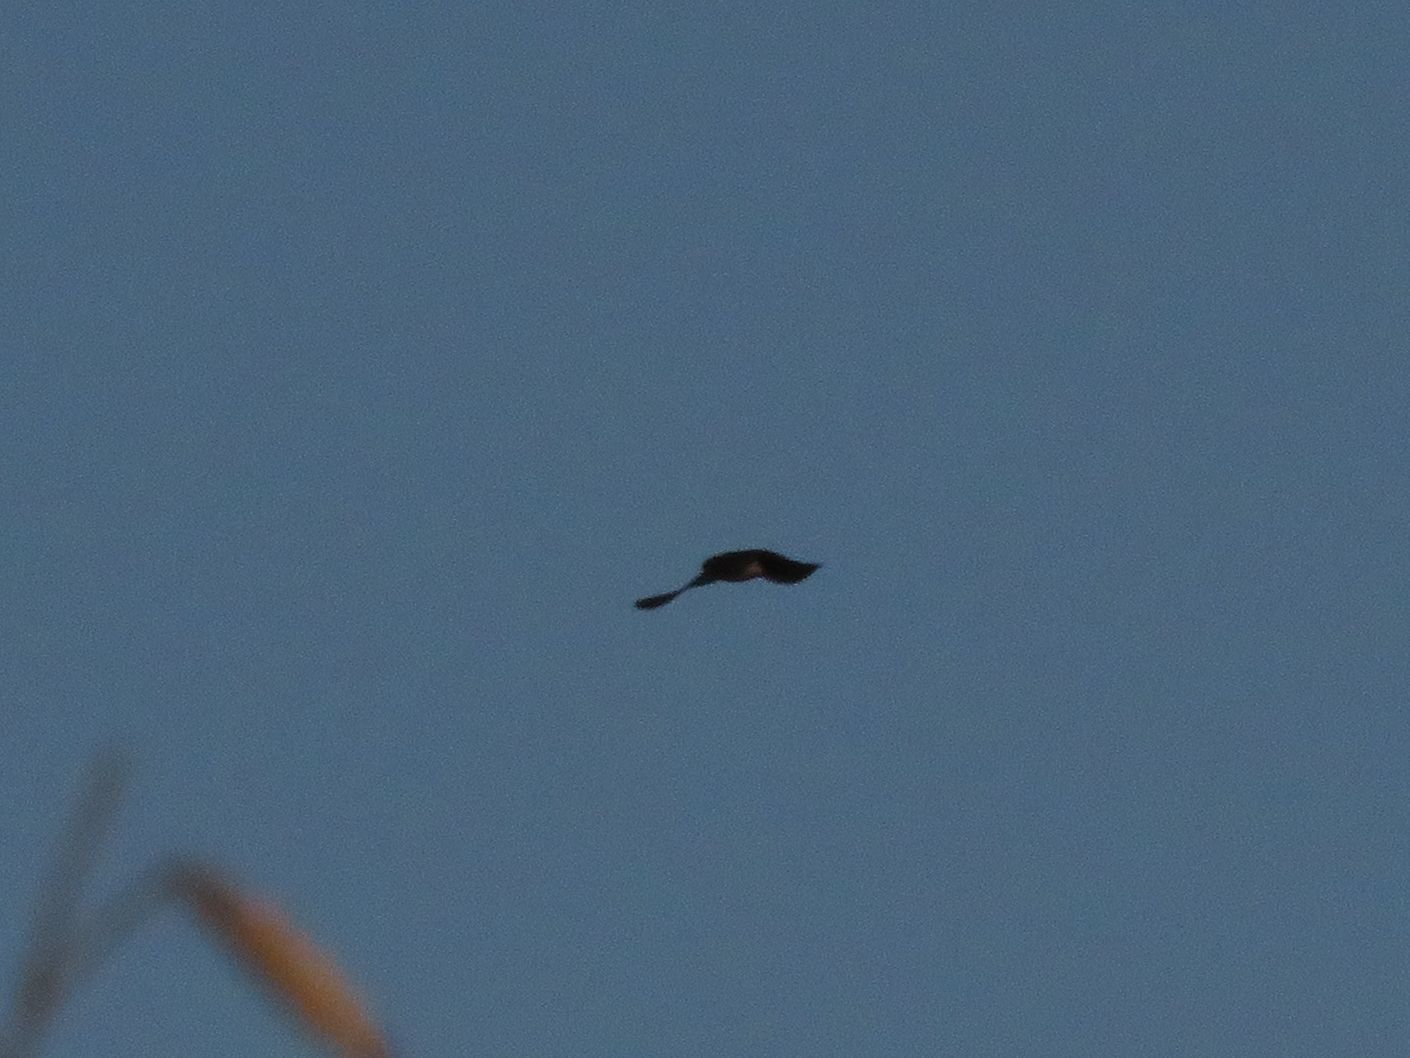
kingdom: Animalia
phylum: Chordata
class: Aves
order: Passeriformes
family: Hirundinidae
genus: Notiochelidon
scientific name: Notiochelidon cyanoleuca
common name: Blue-and-white swallow
